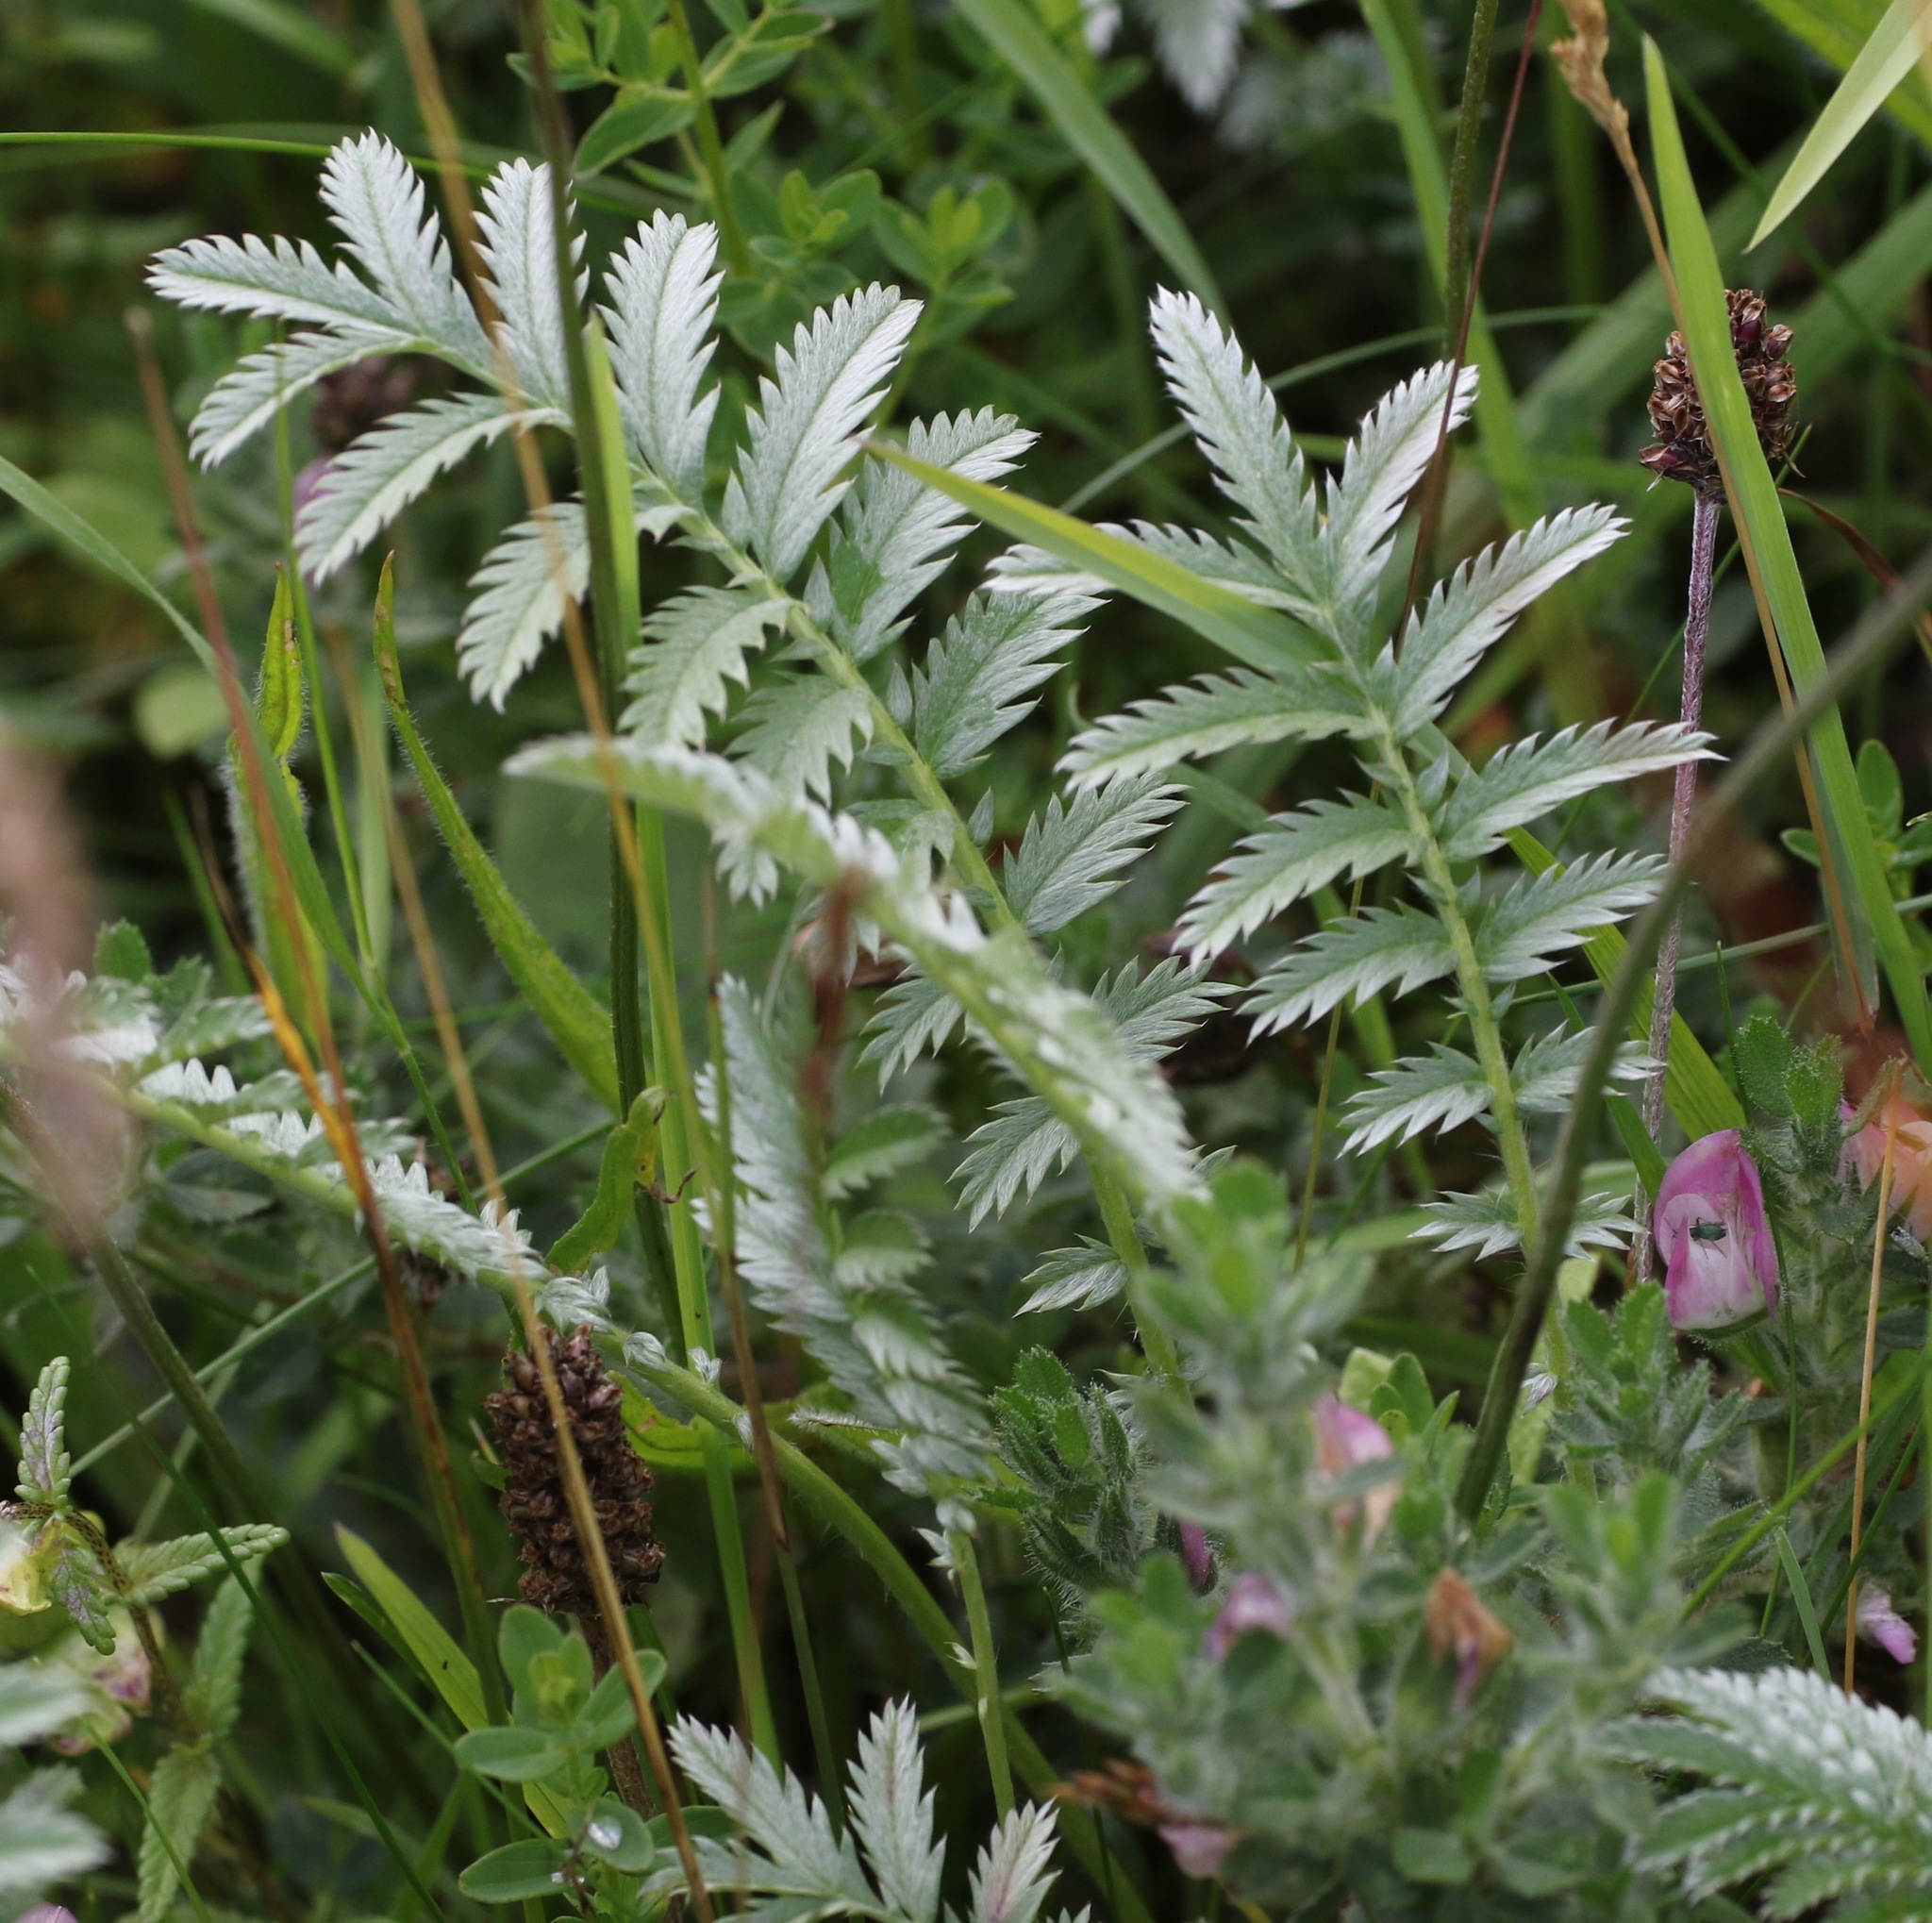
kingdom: Plantae
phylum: Tracheophyta
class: Magnoliopsida
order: Rosales
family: Rosaceae
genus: Argentina
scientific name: Argentina anserina
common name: Common silverweed
